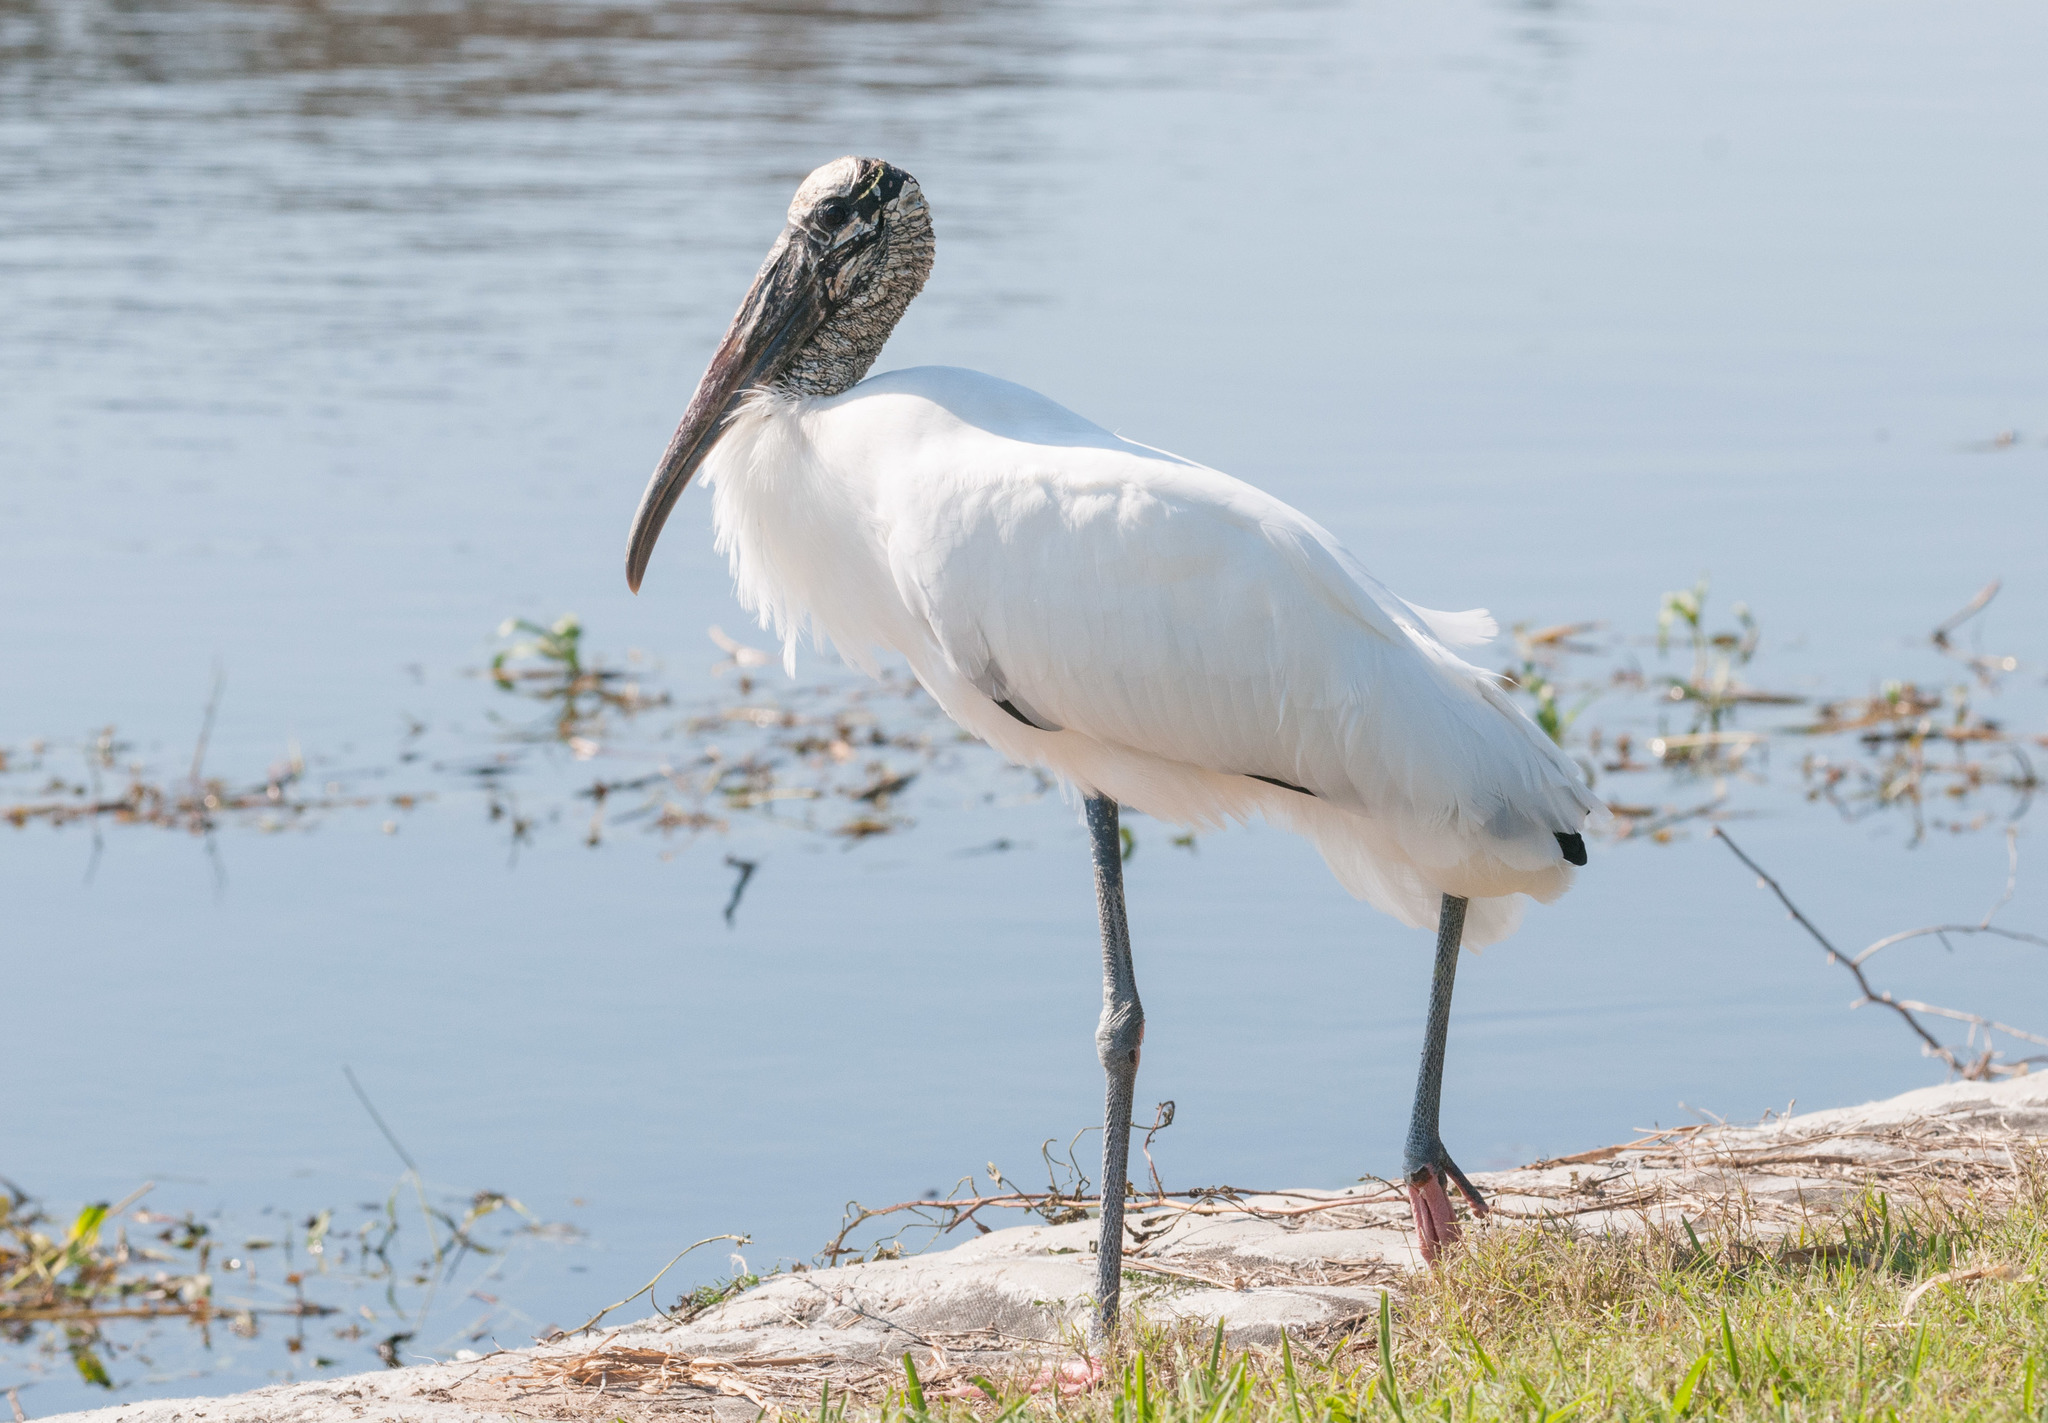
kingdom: Animalia
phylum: Chordata
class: Aves
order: Ciconiiformes
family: Ciconiidae
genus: Mycteria
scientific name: Mycteria americana
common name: Wood stork
